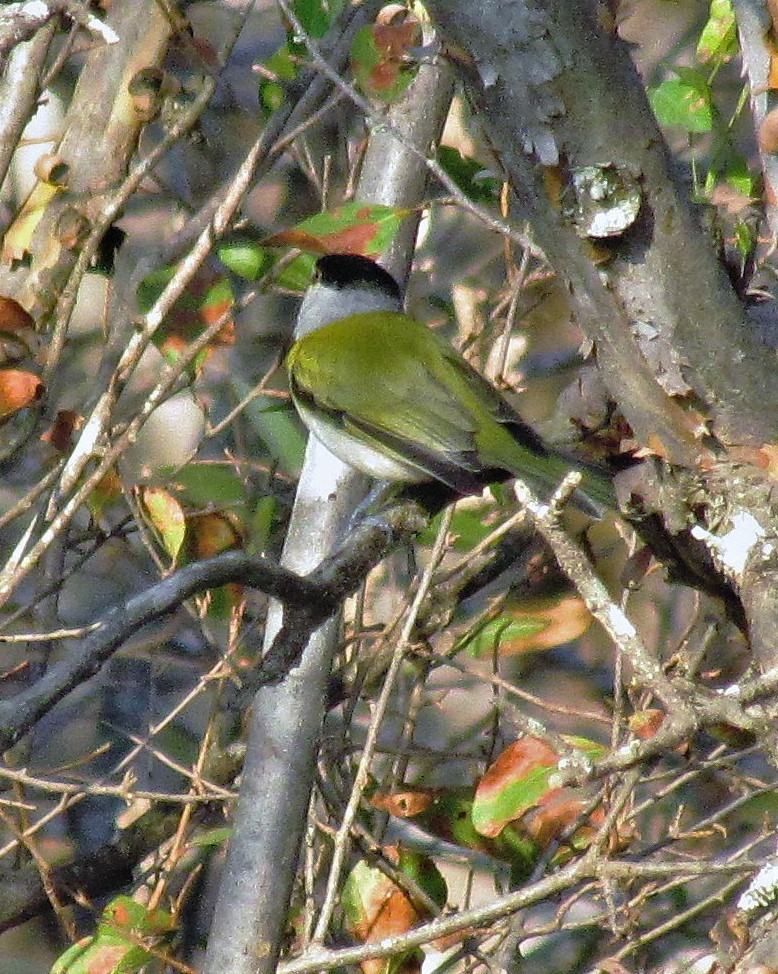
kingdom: Animalia
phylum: Chordata
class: Aves
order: Passeriformes
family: Cotingidae
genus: Pachyramphus
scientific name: Pachyramphus viridis
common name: Green-backed becard
